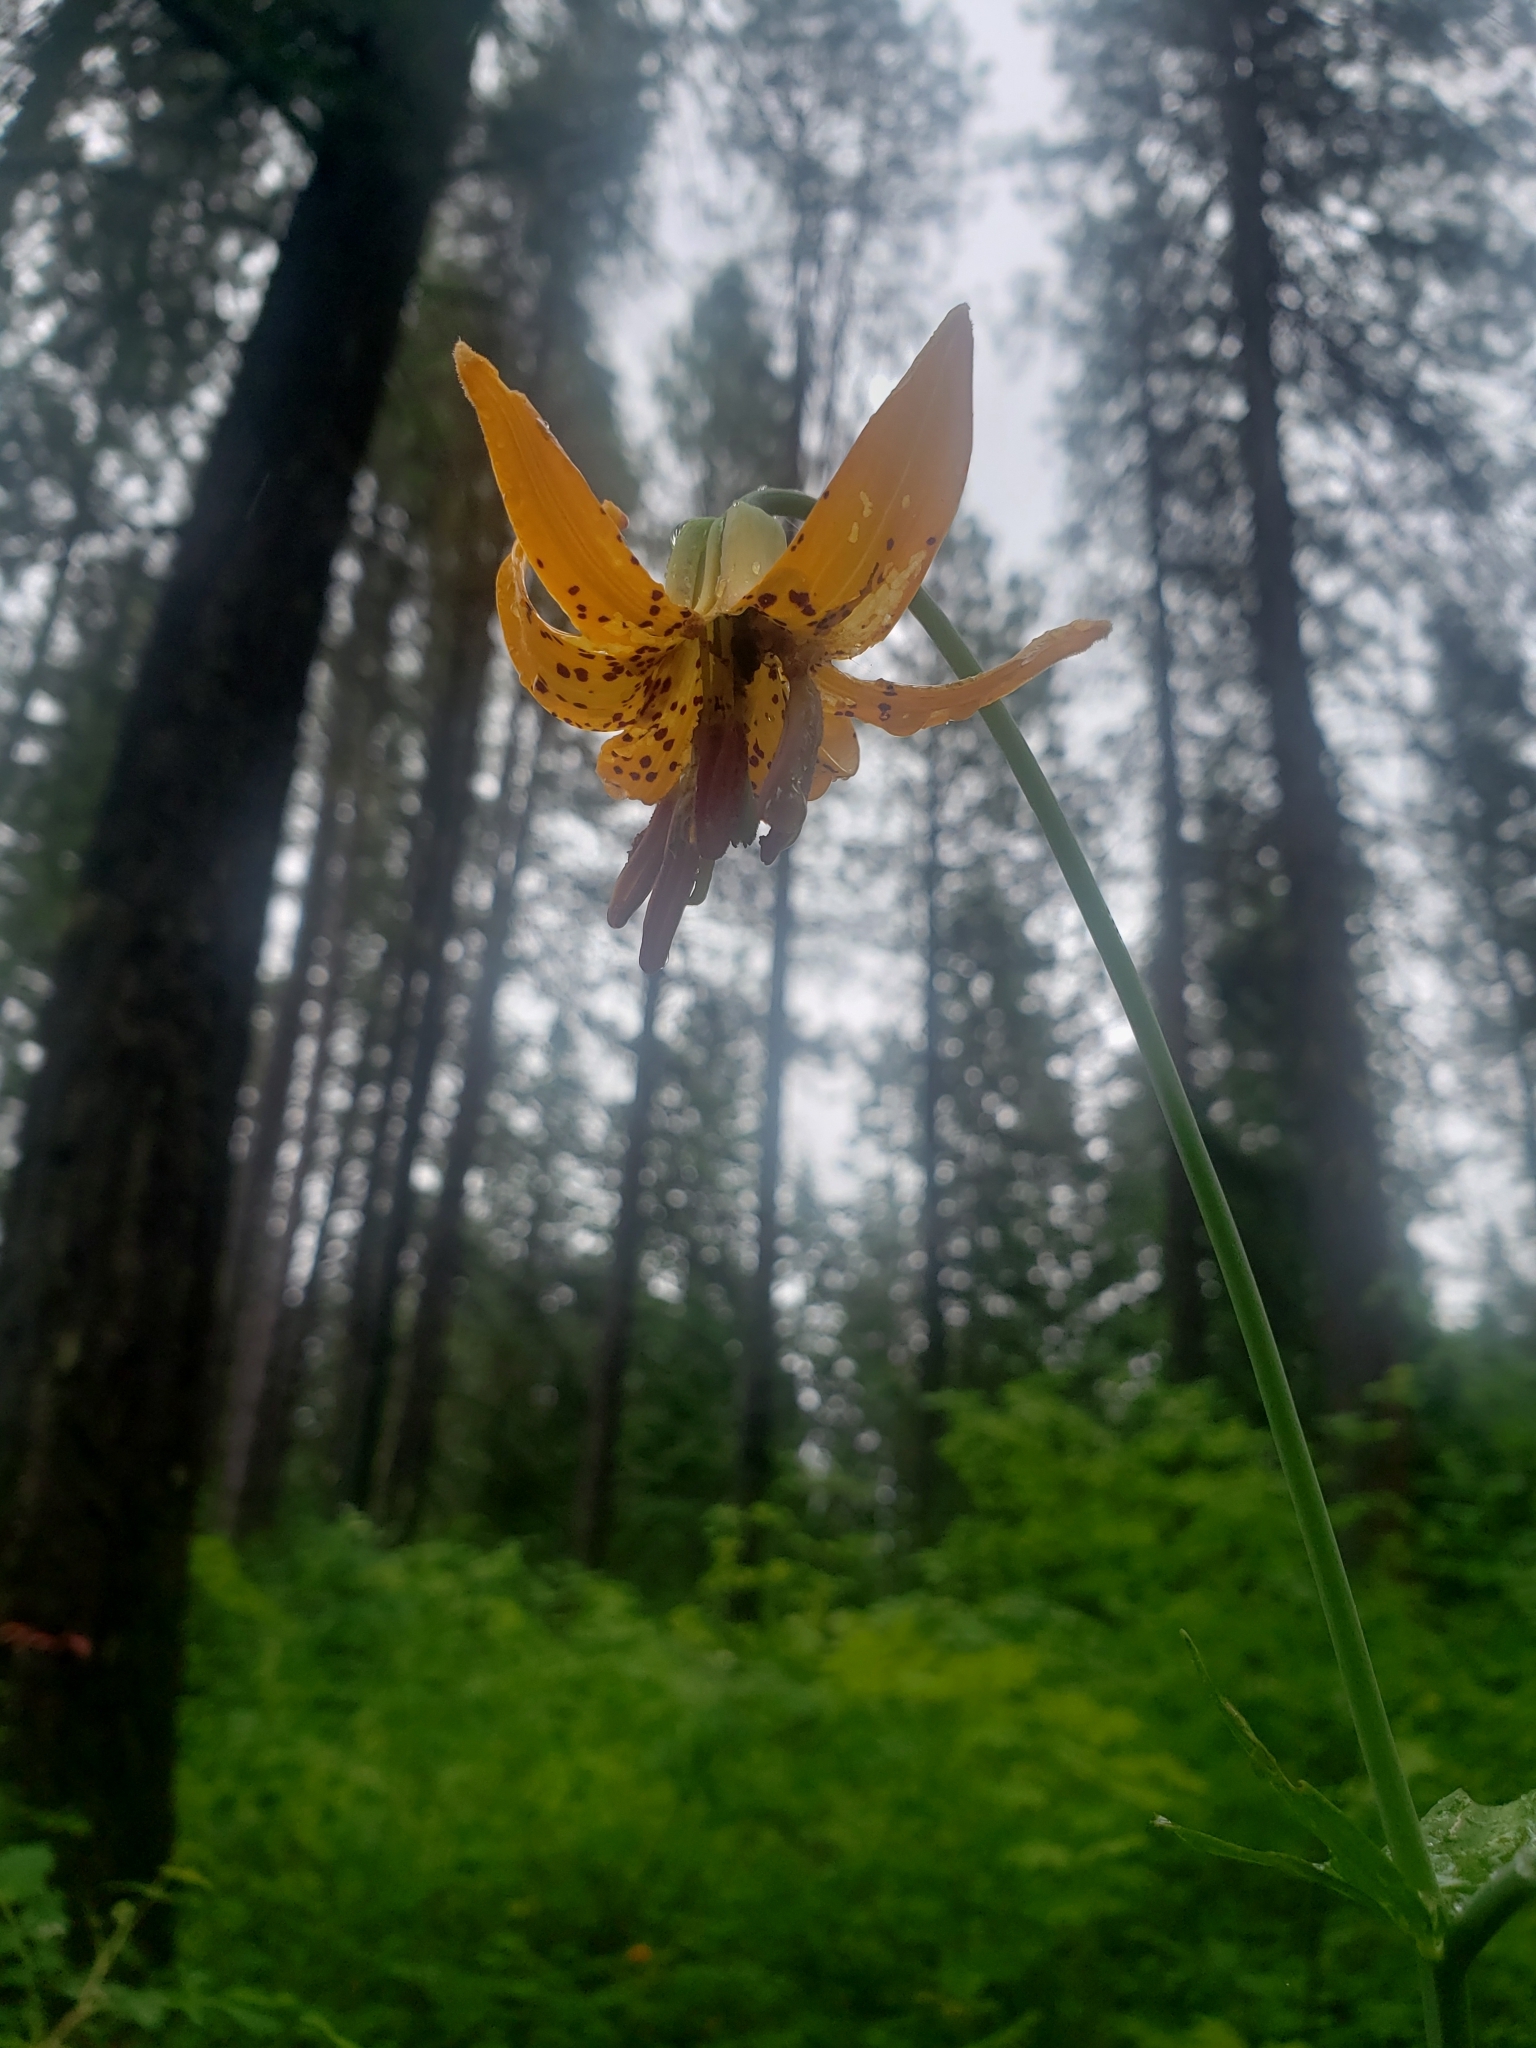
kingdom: Plantae
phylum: Tracheophyta
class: Liliopsida
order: Liliales
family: Liliaceae
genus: Lilium
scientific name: Lilium columbianum
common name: Columbia lily
